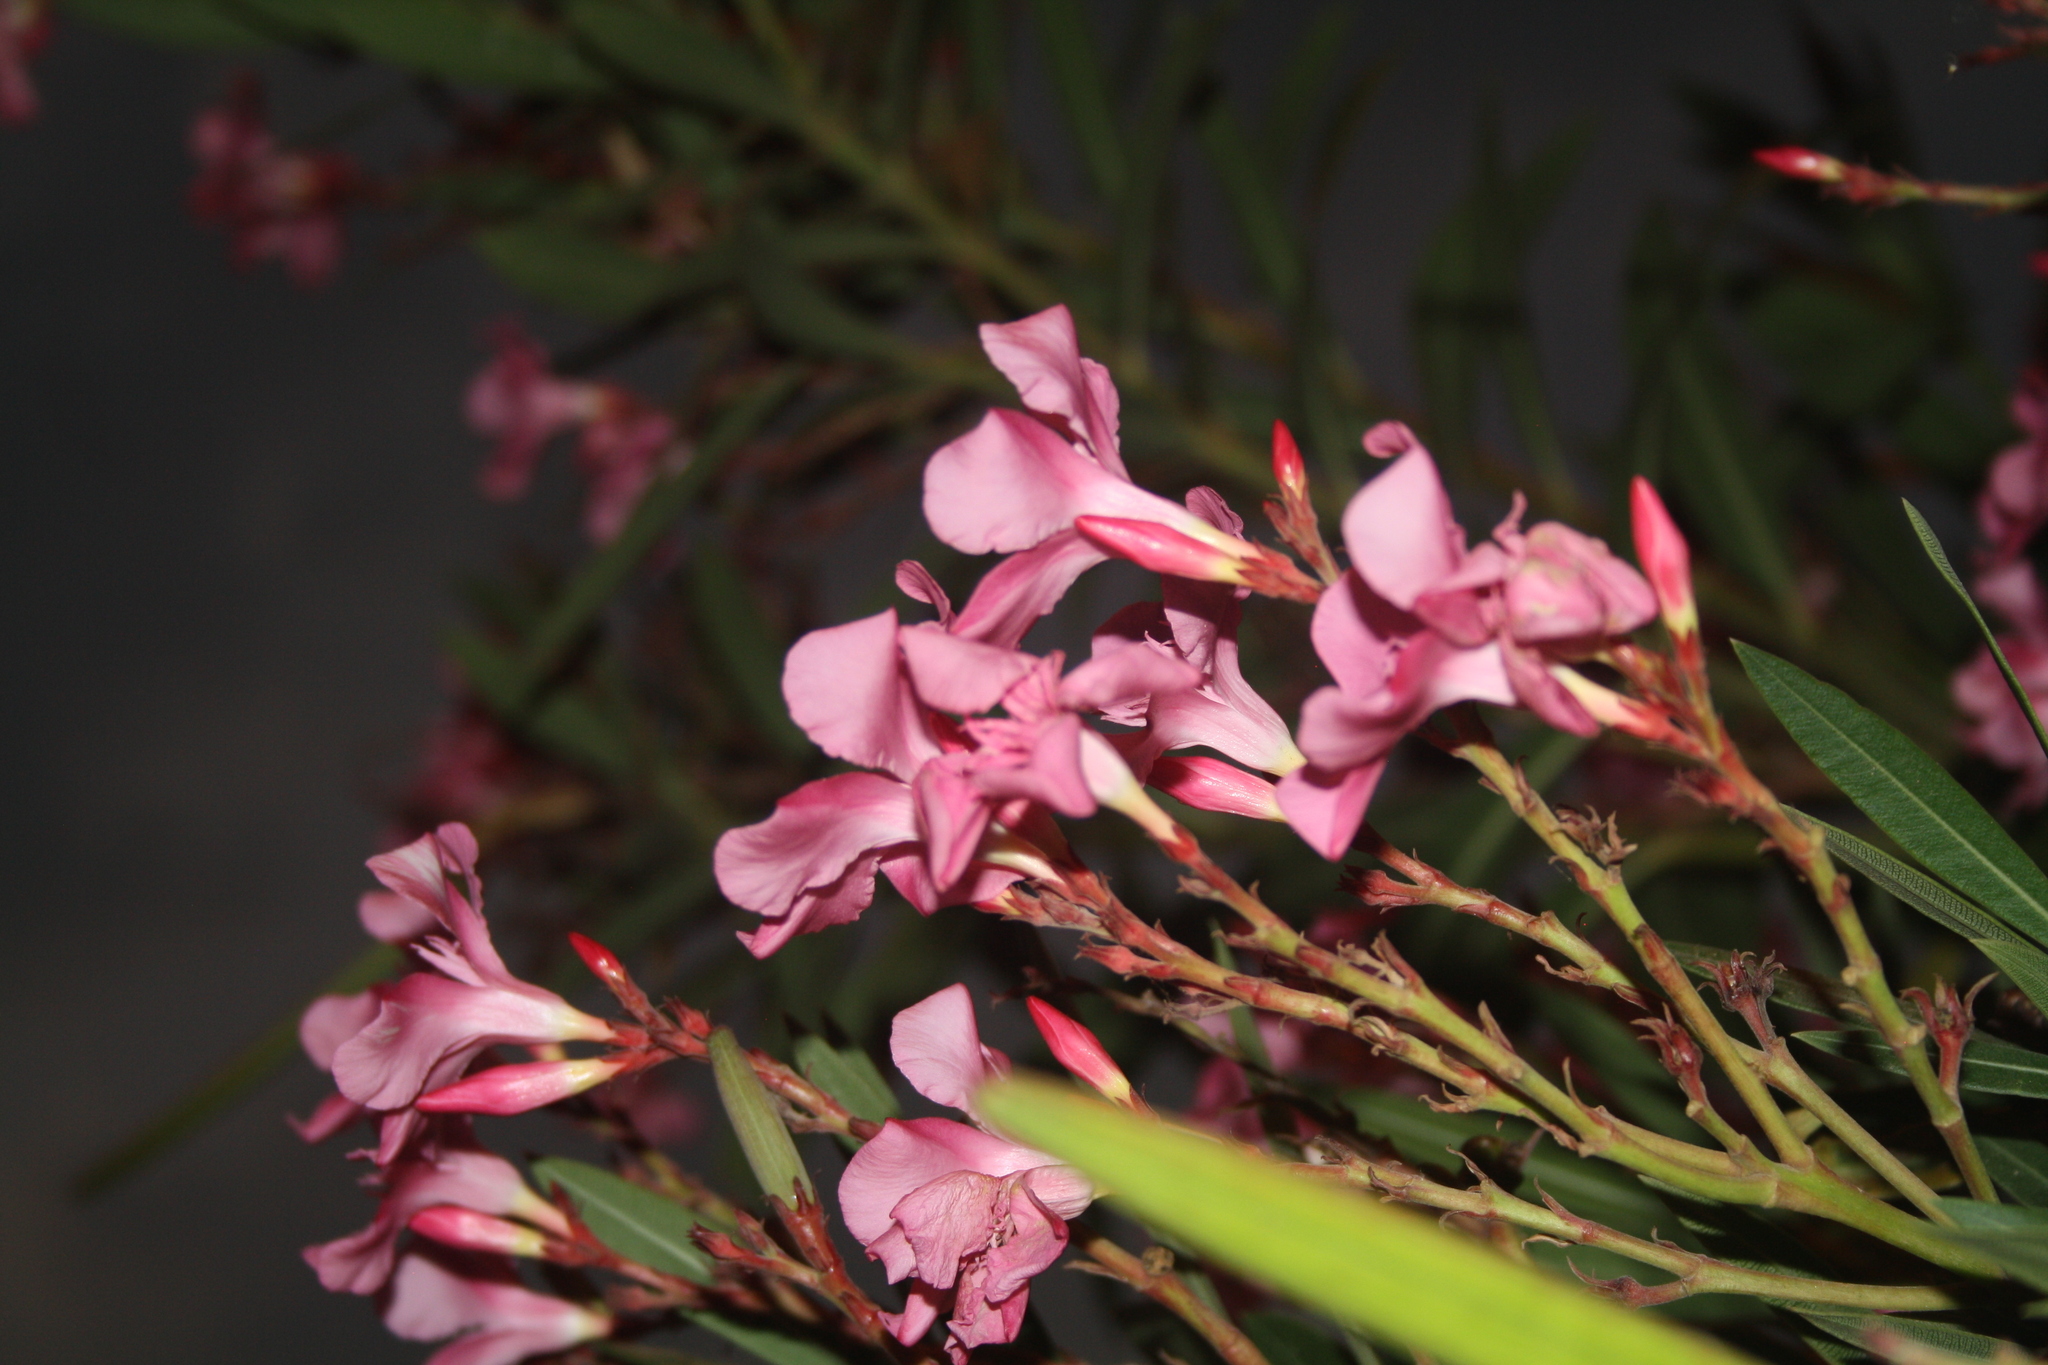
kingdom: Plantae
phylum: Tracheophyta
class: Magnoliopsida
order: Gentianales
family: Apocynaceae
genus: Nerium
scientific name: Nerium oleander
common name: Oleander
